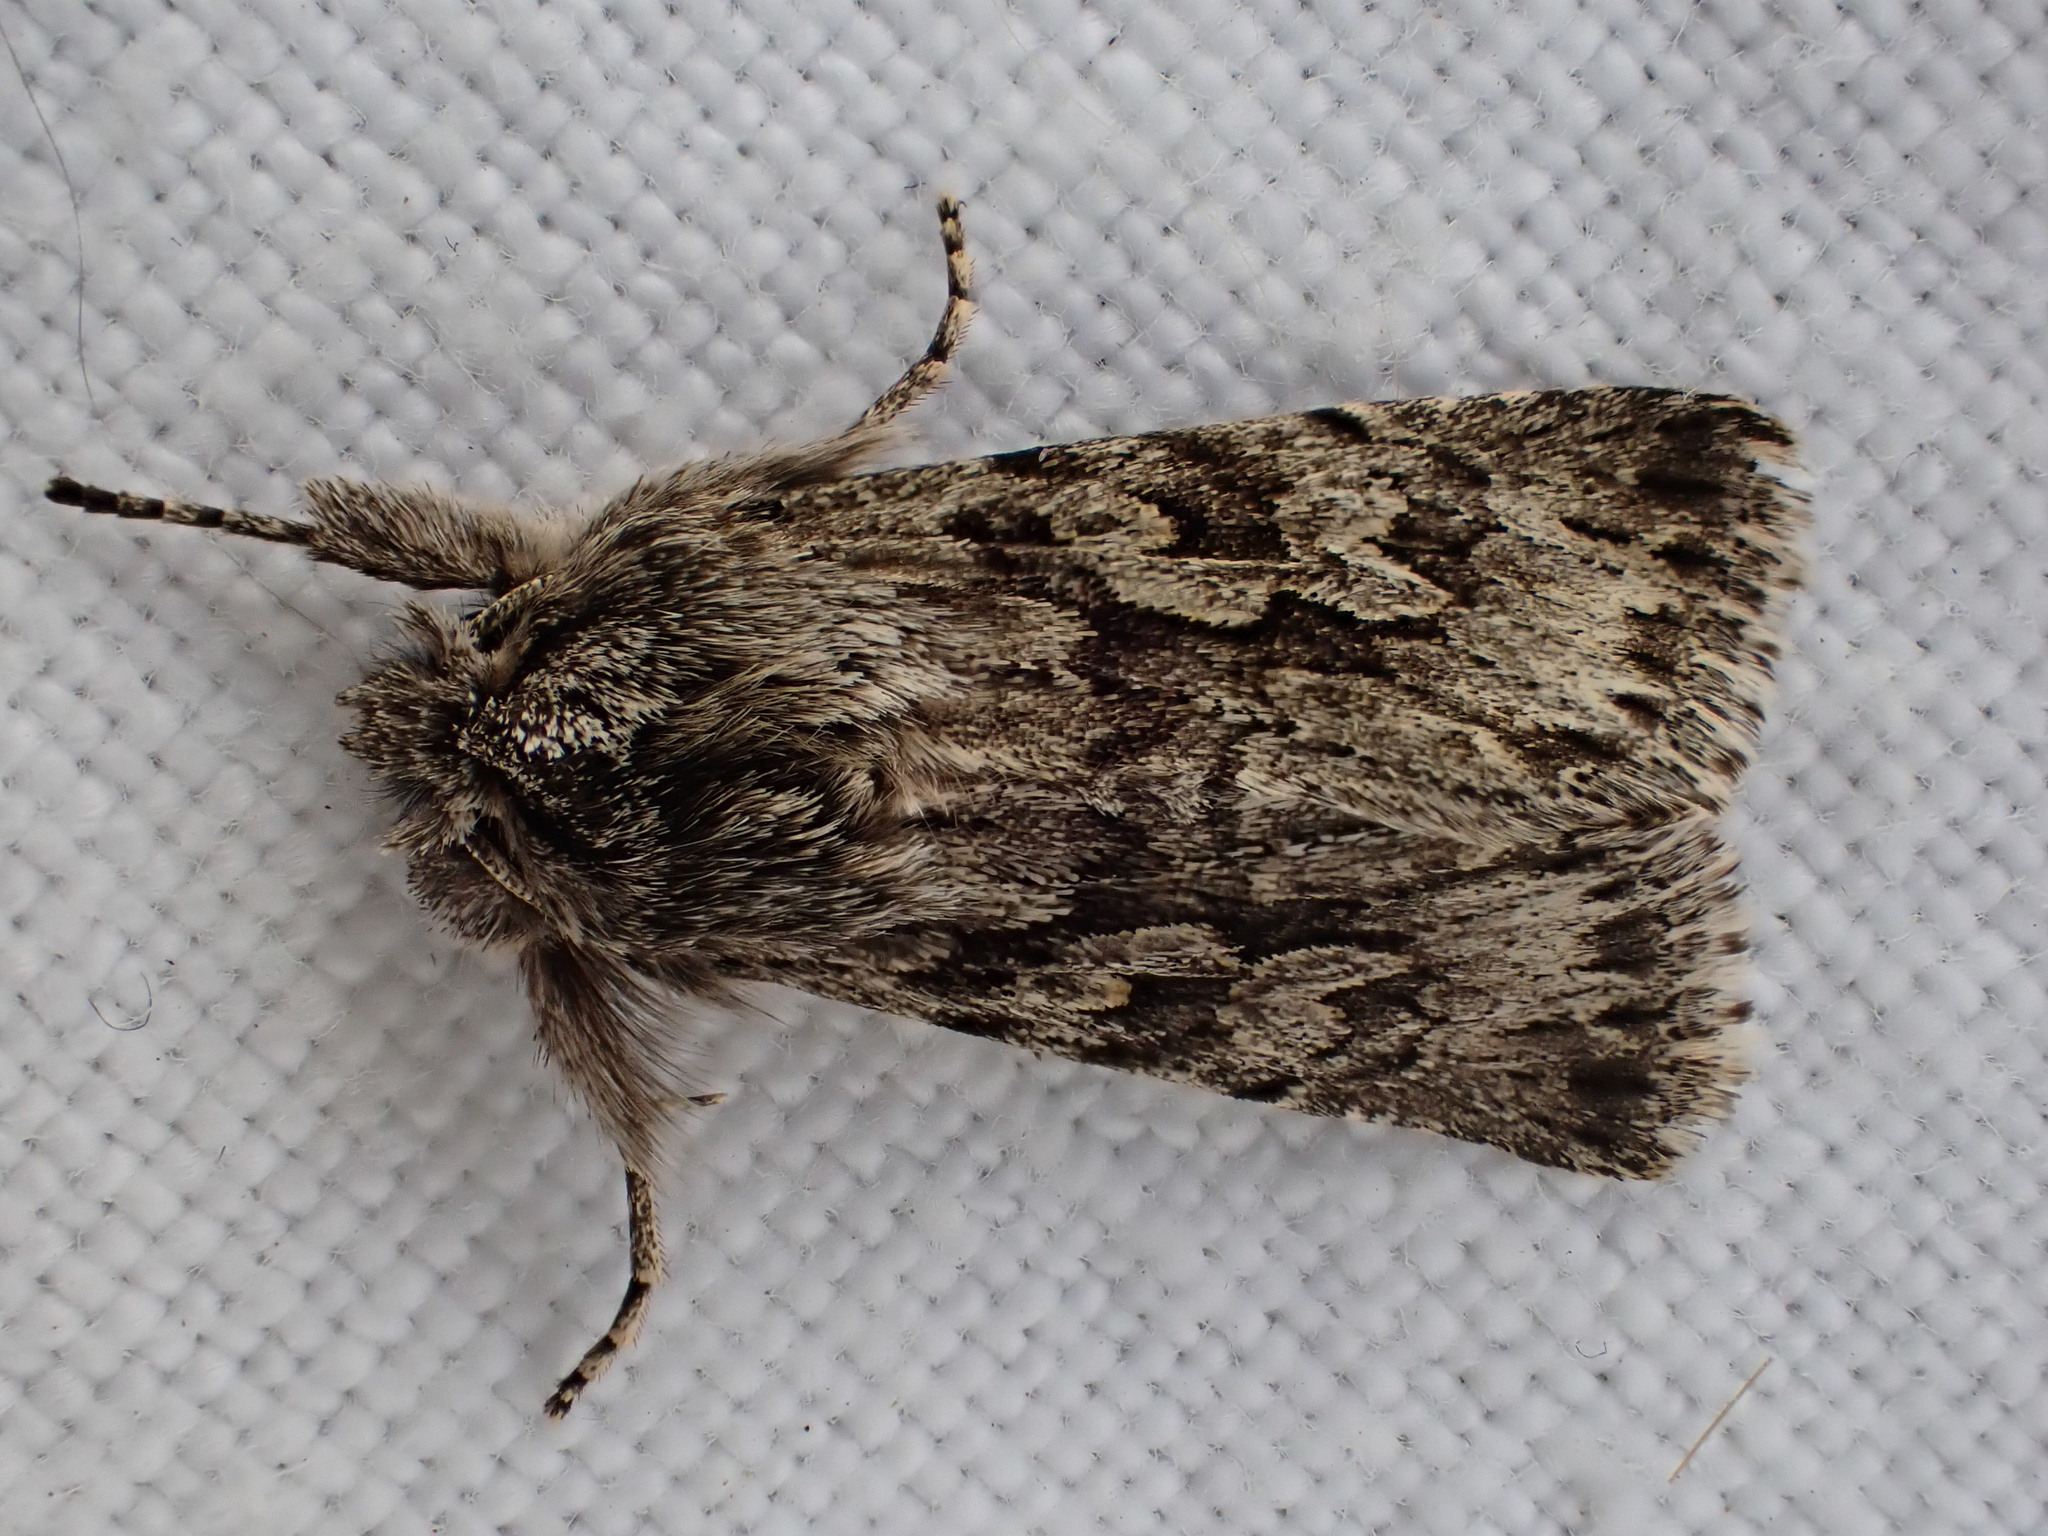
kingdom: Animalia
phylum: Arthropoda
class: Insecta
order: Lepidoptera
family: Noctuidae
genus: Xylocampa
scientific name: Xylocampa areola
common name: Early grey
